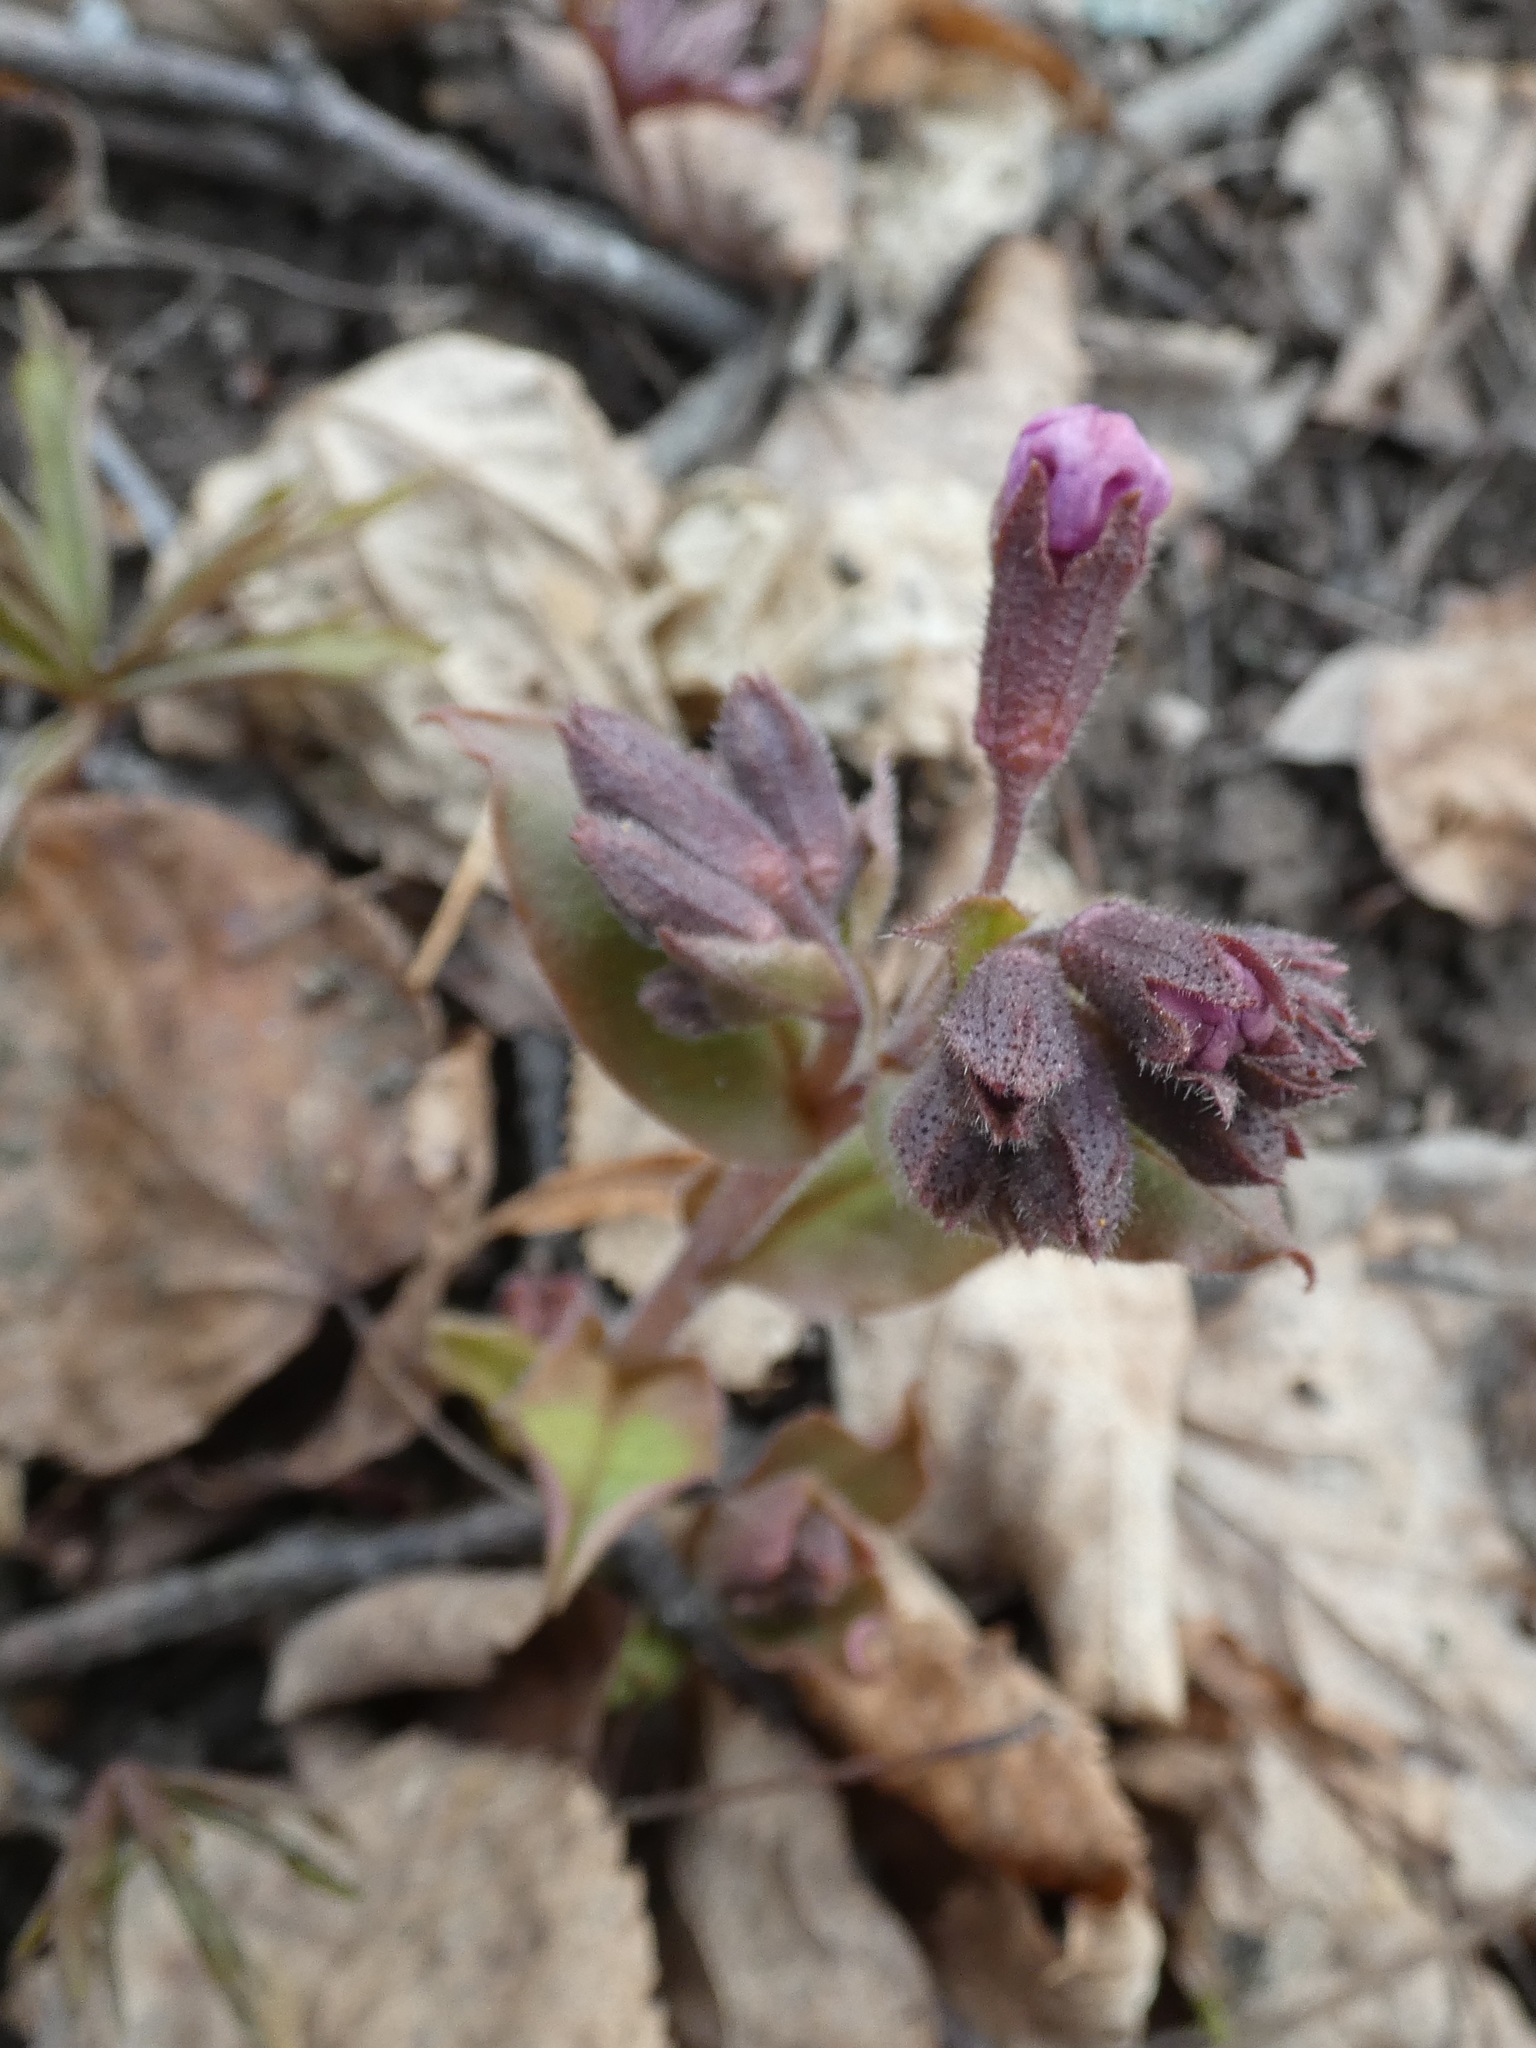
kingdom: Plantae
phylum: Tracheophyta
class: Magnoliopsida
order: Boraginales
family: Boraginaceae
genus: Pulmonaria
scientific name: Pulmonaria obscura
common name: Suffolk lungwort
